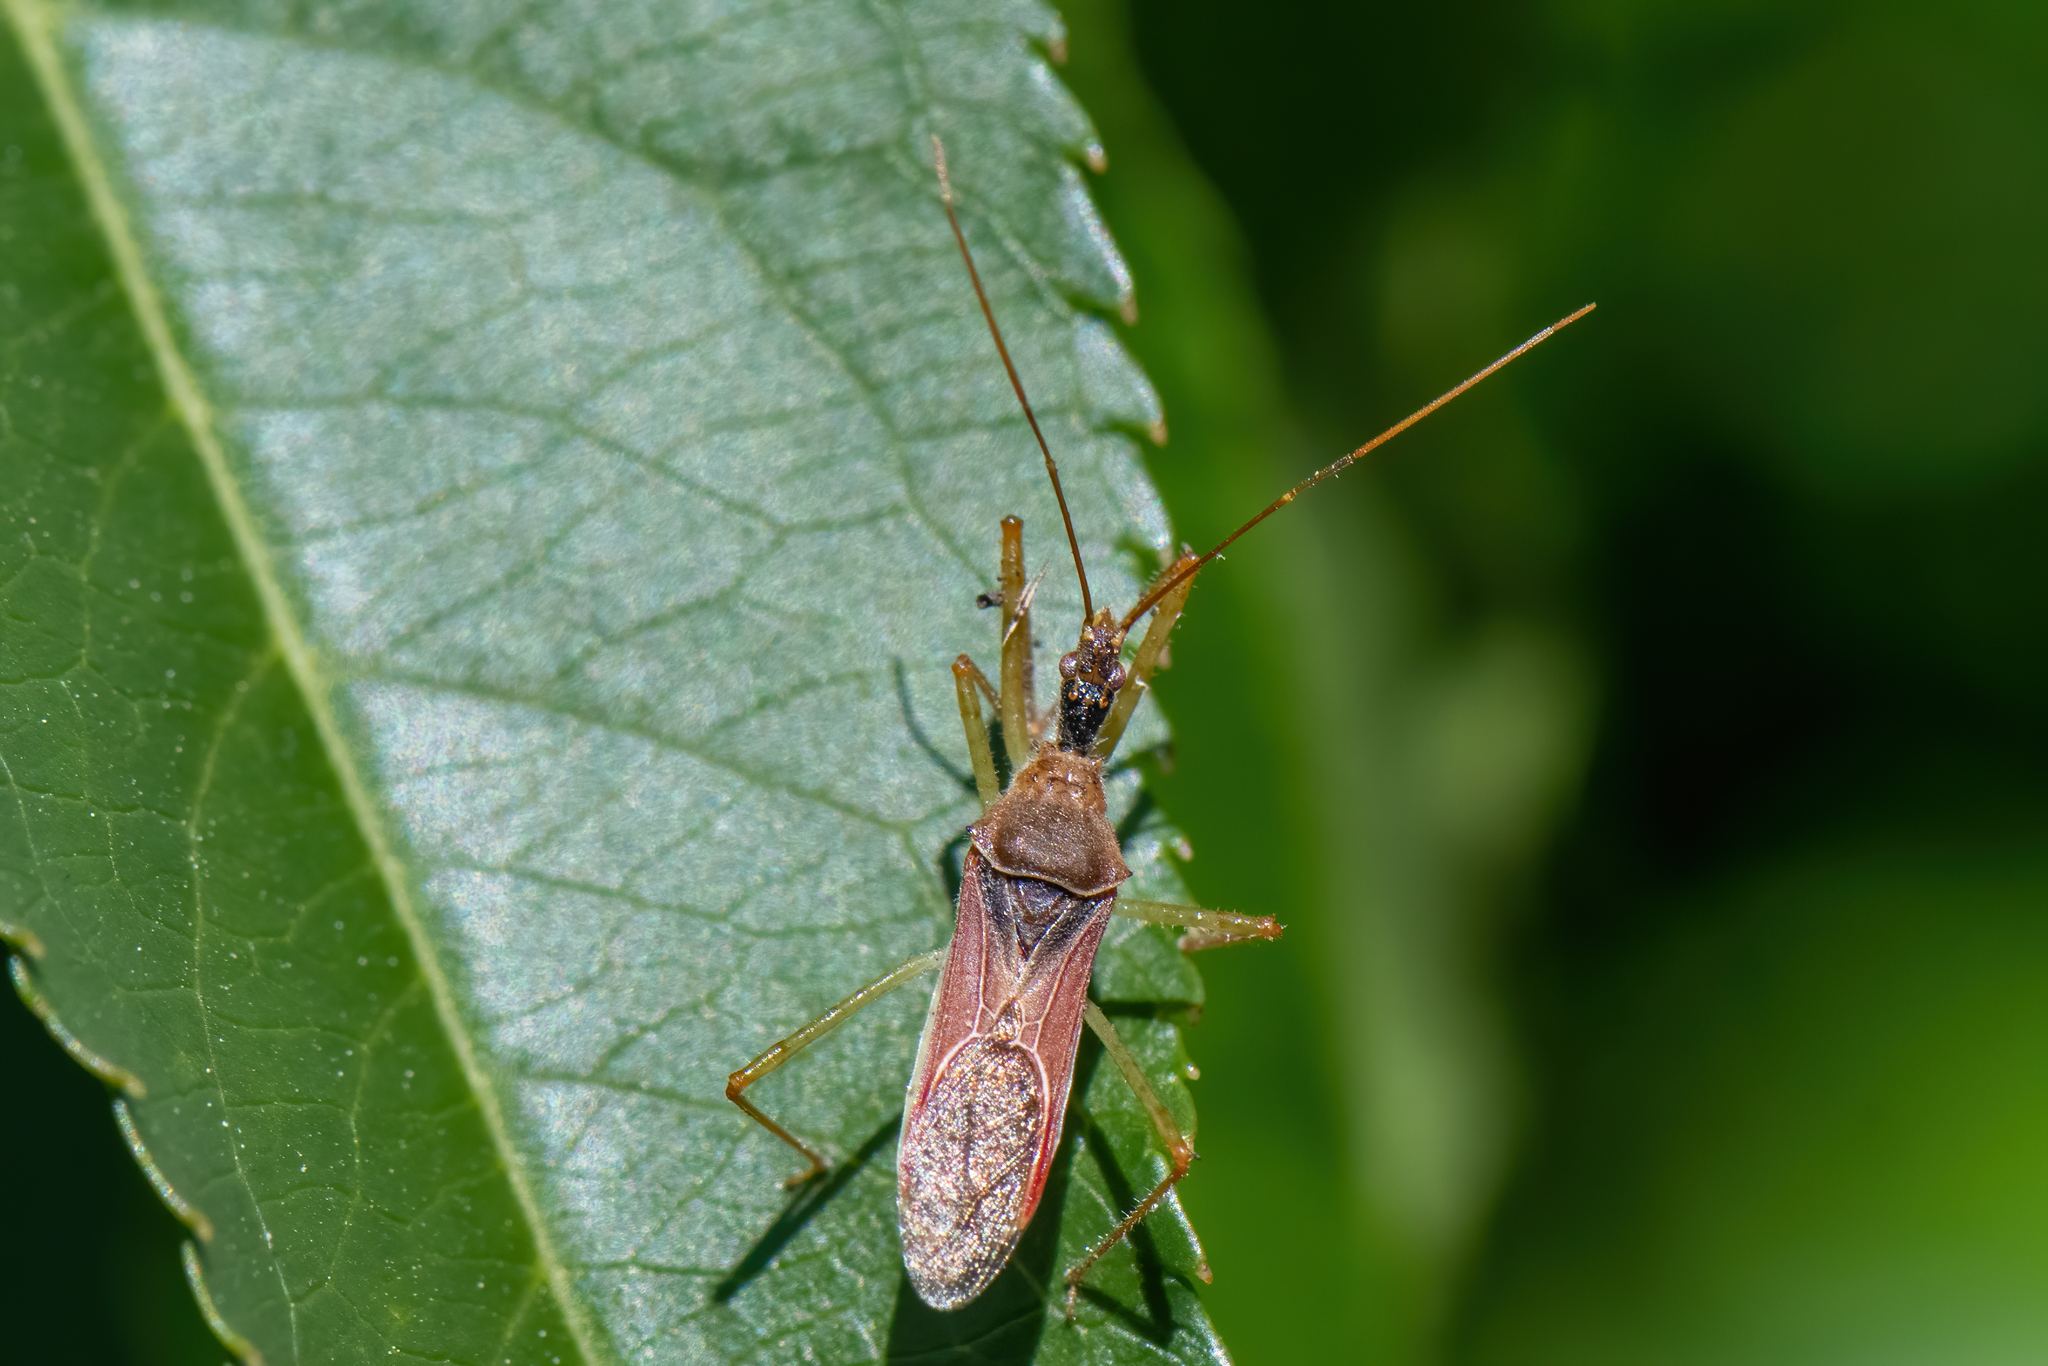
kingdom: Animalia
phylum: Arthropoda
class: Insecta
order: Hemiptera
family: Reduviidae
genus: Zelus
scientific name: Zelus renardii
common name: Assassin bug
